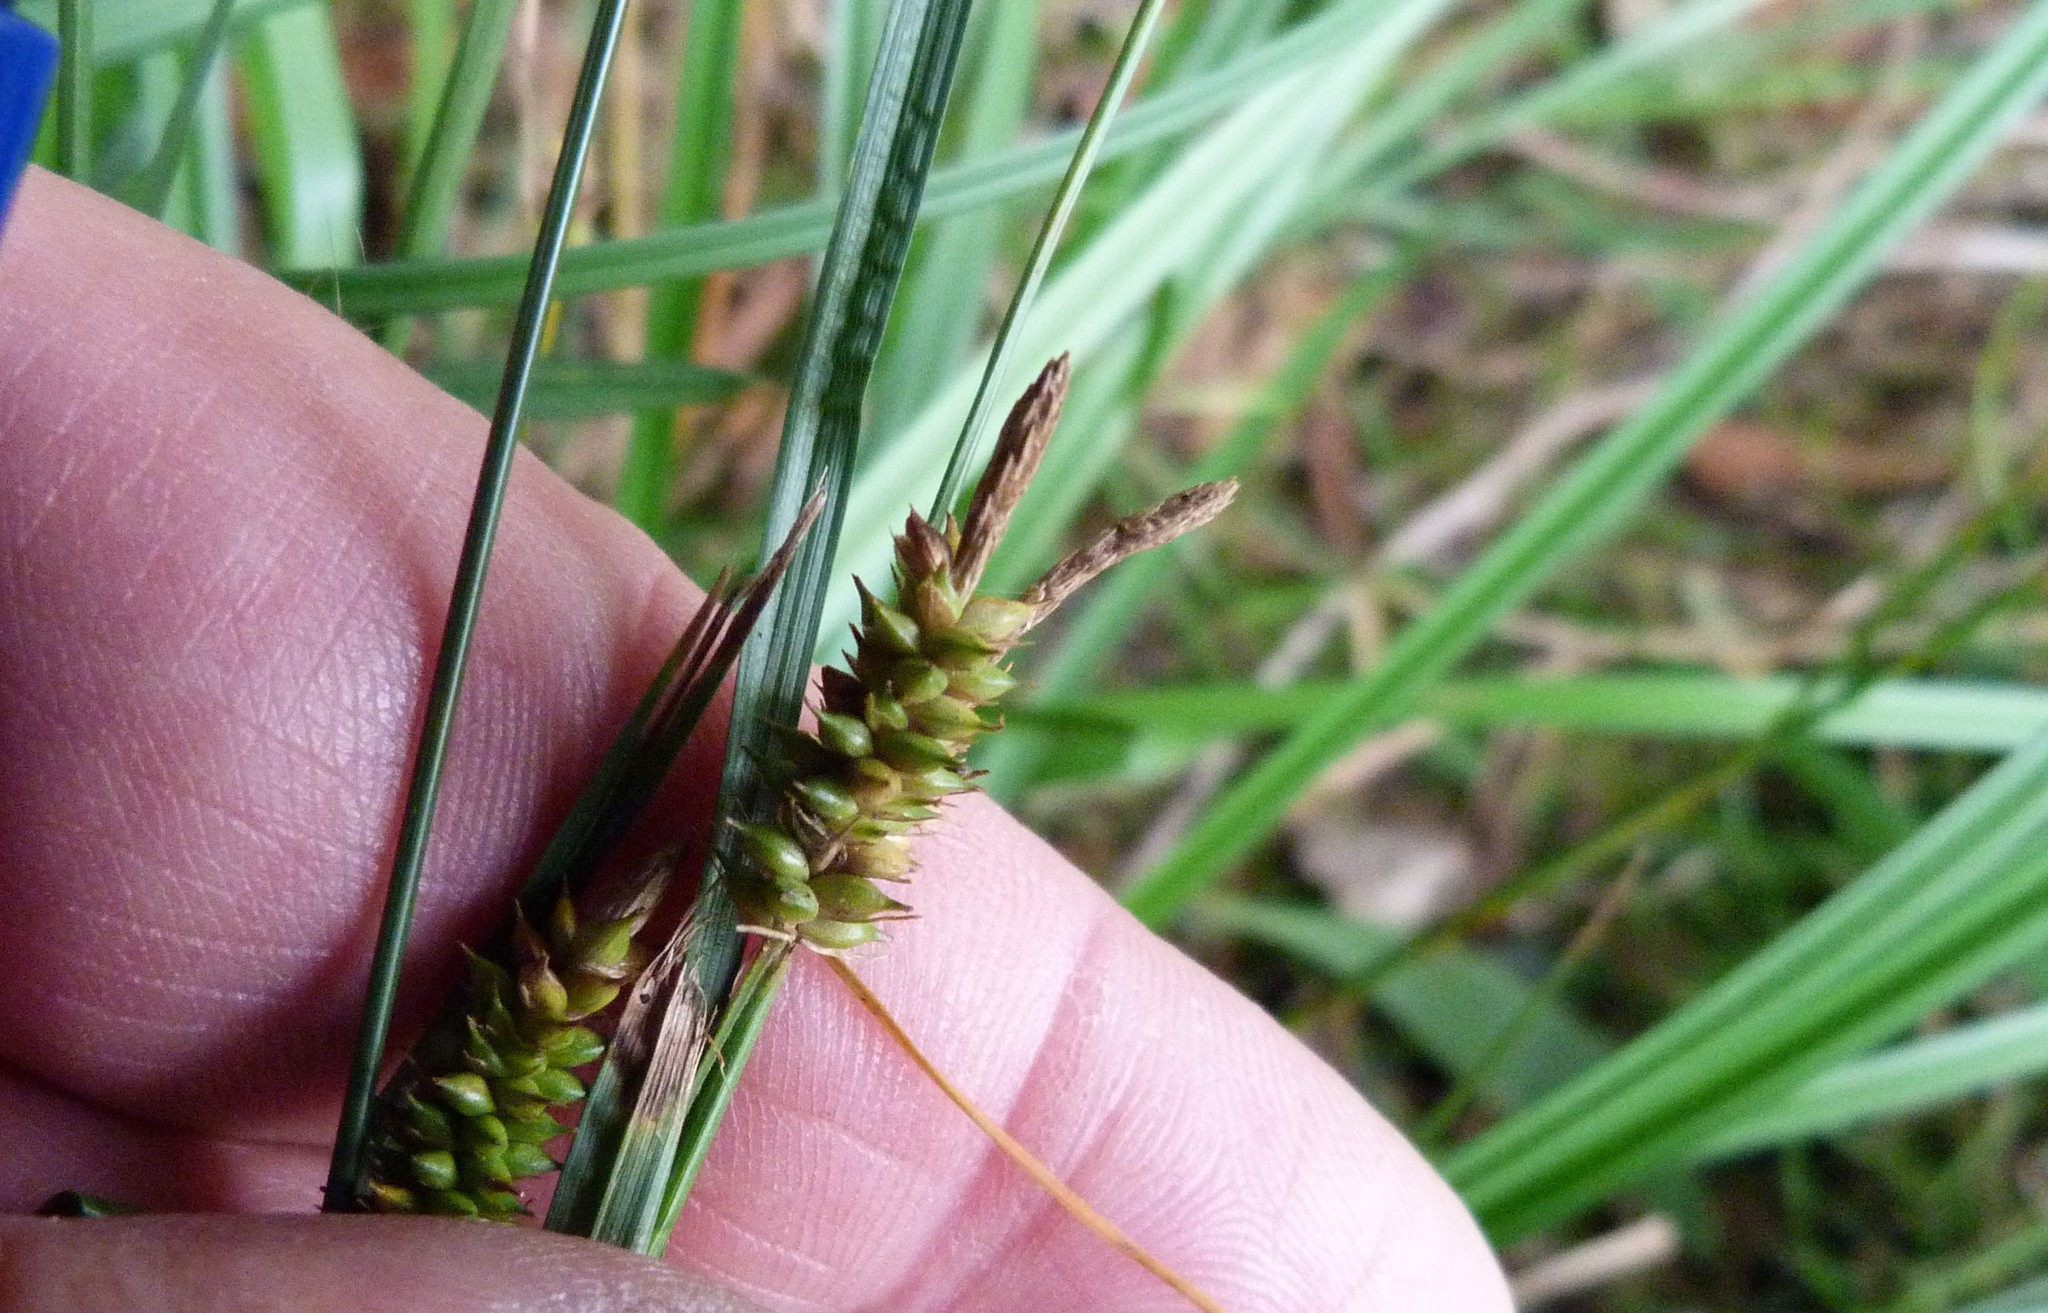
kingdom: Plantae
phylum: Tracheophyta
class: Liliopsida
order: Poales
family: Cyperaceae
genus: Carex
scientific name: Carex dissita
